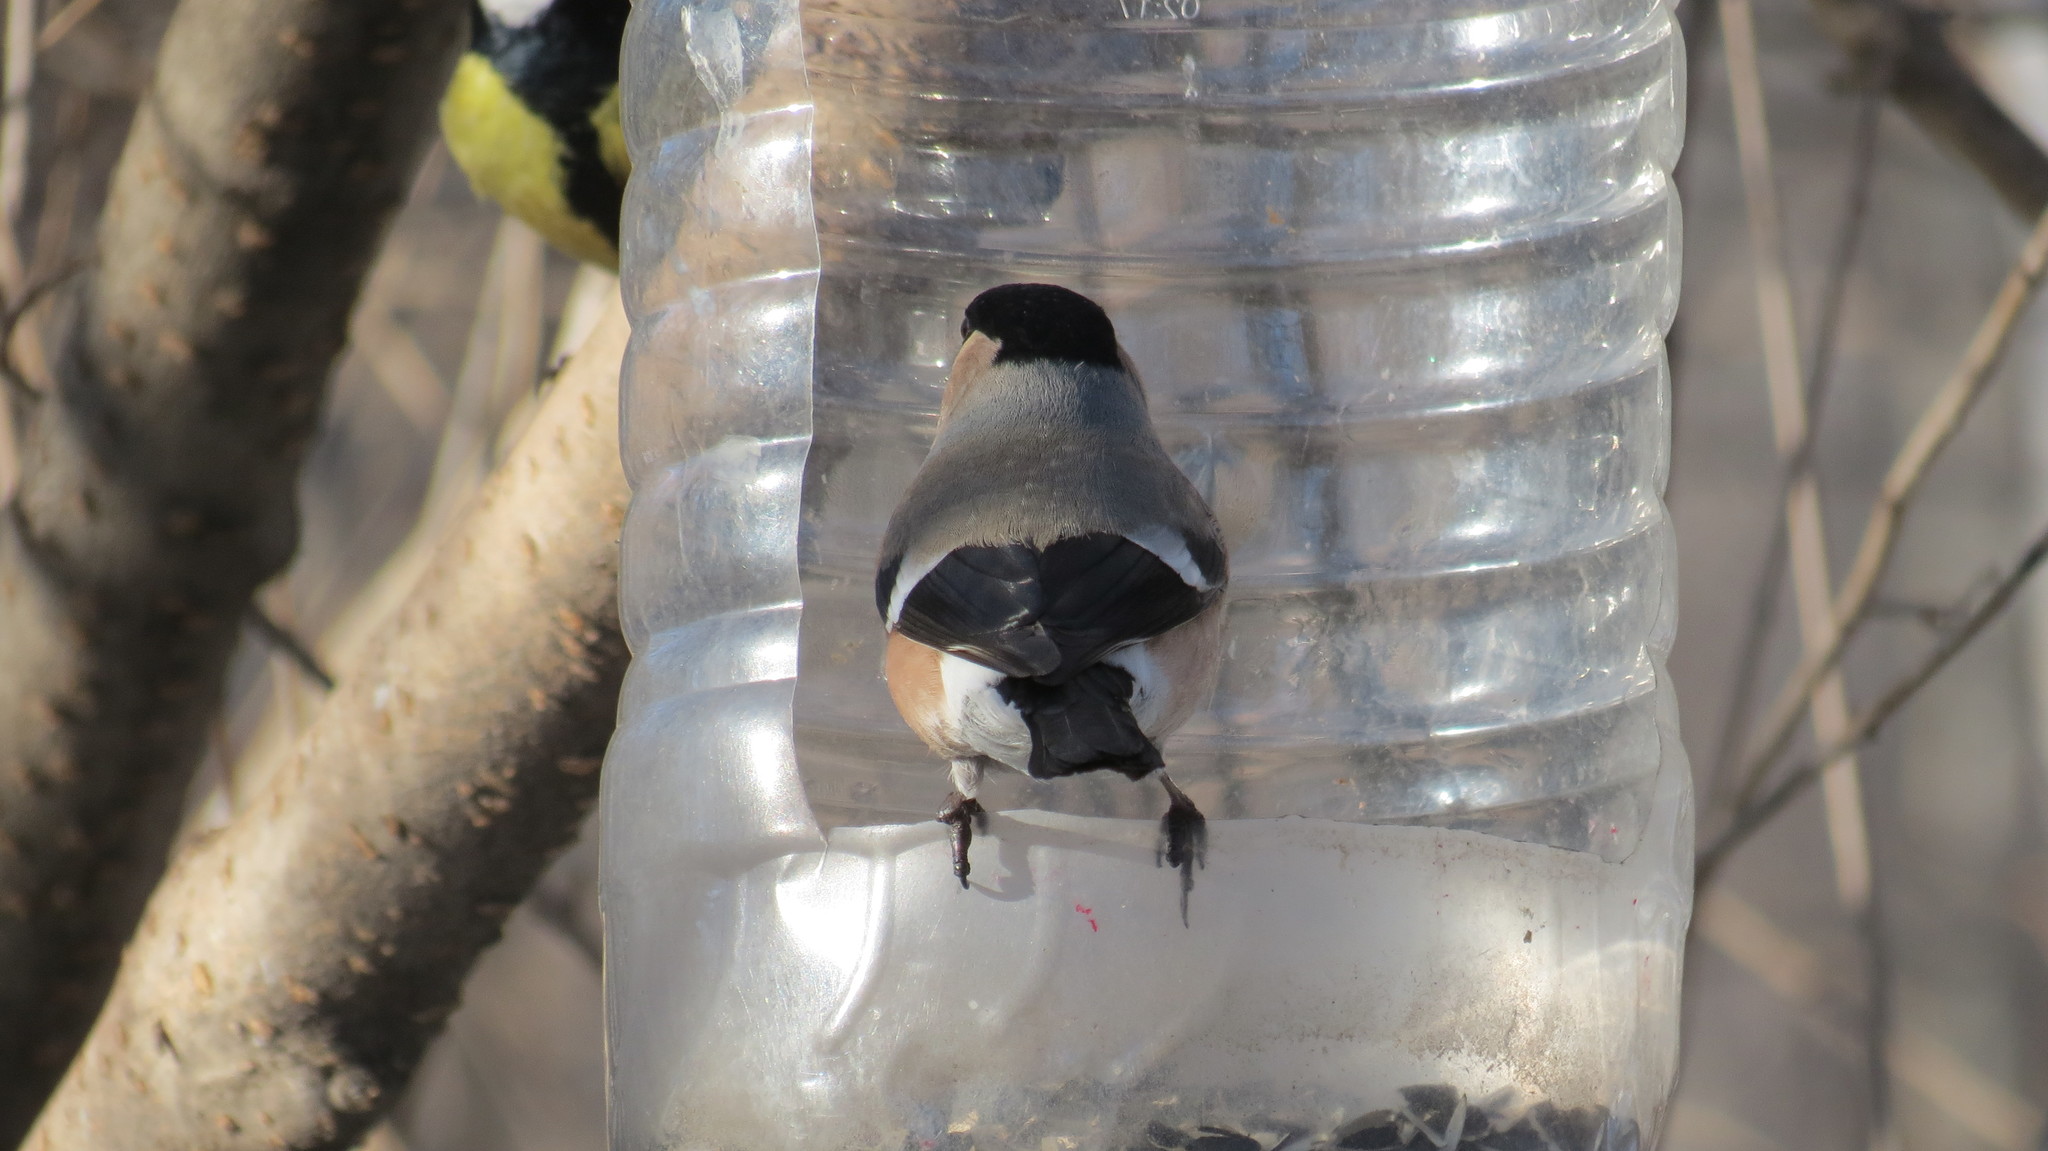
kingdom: Animalia
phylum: Chordata
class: Aves
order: Passeriformes
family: Fringillidae
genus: Pyrrhula
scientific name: Pyrrhula pyrrhula
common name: Eurasian bullfinch
